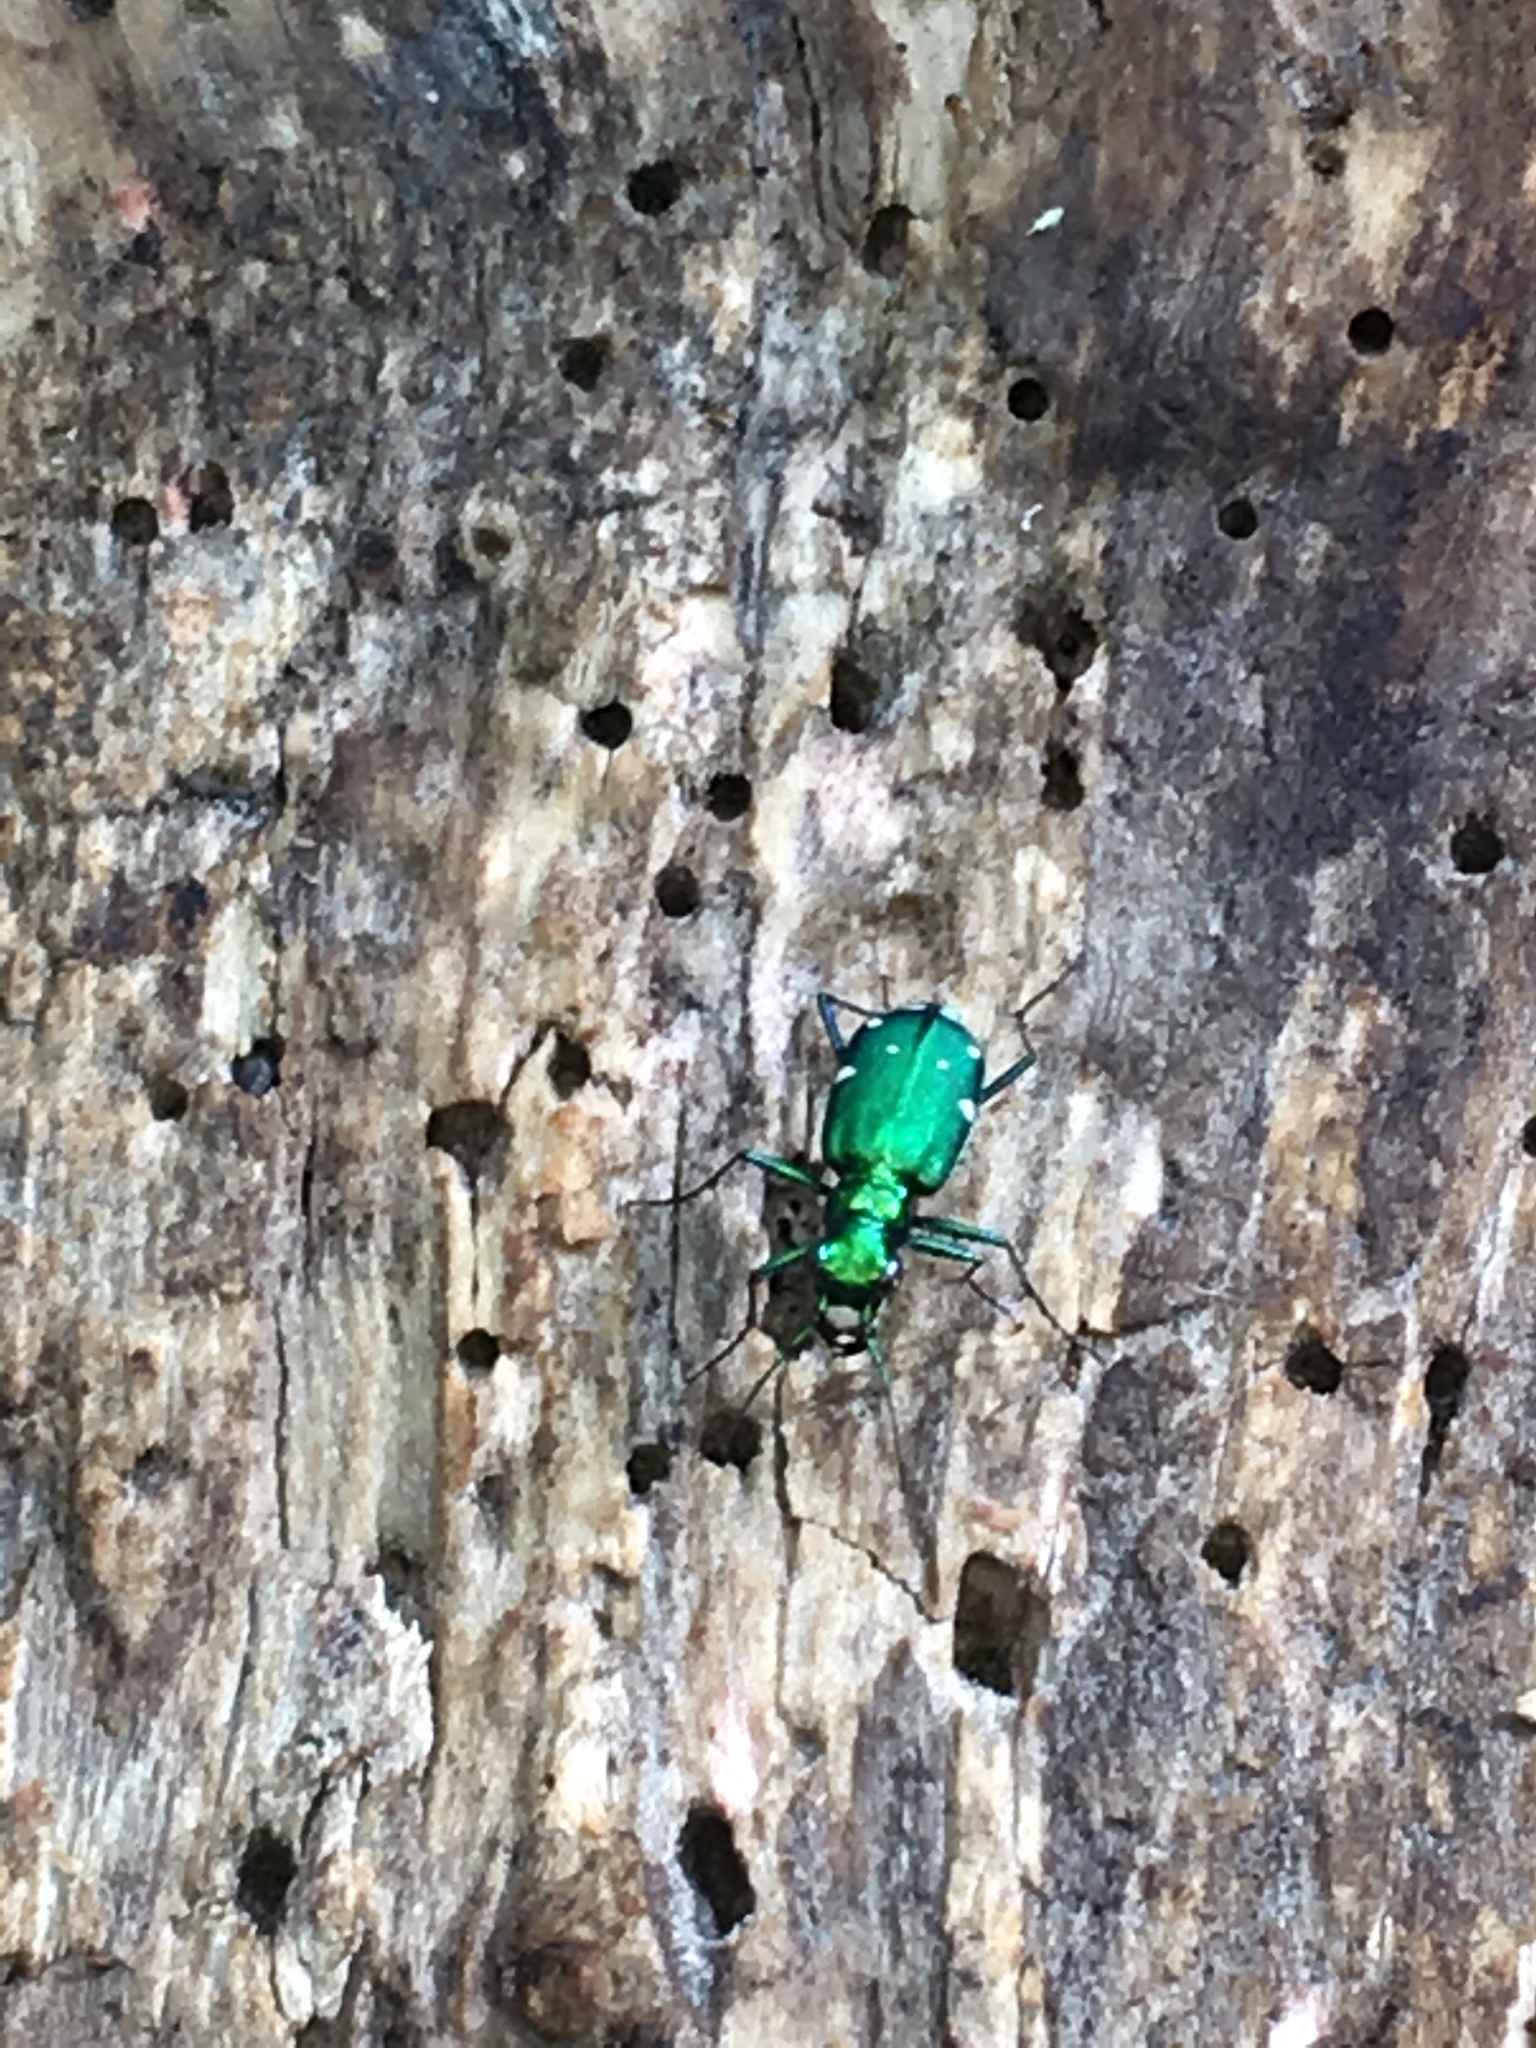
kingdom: Animalia
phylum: Arthropoda
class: Insecta
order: Coleoptera
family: Carabidae
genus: Cicindela
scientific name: Cicindela sexguttata
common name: Six-spotted tiger beetle
